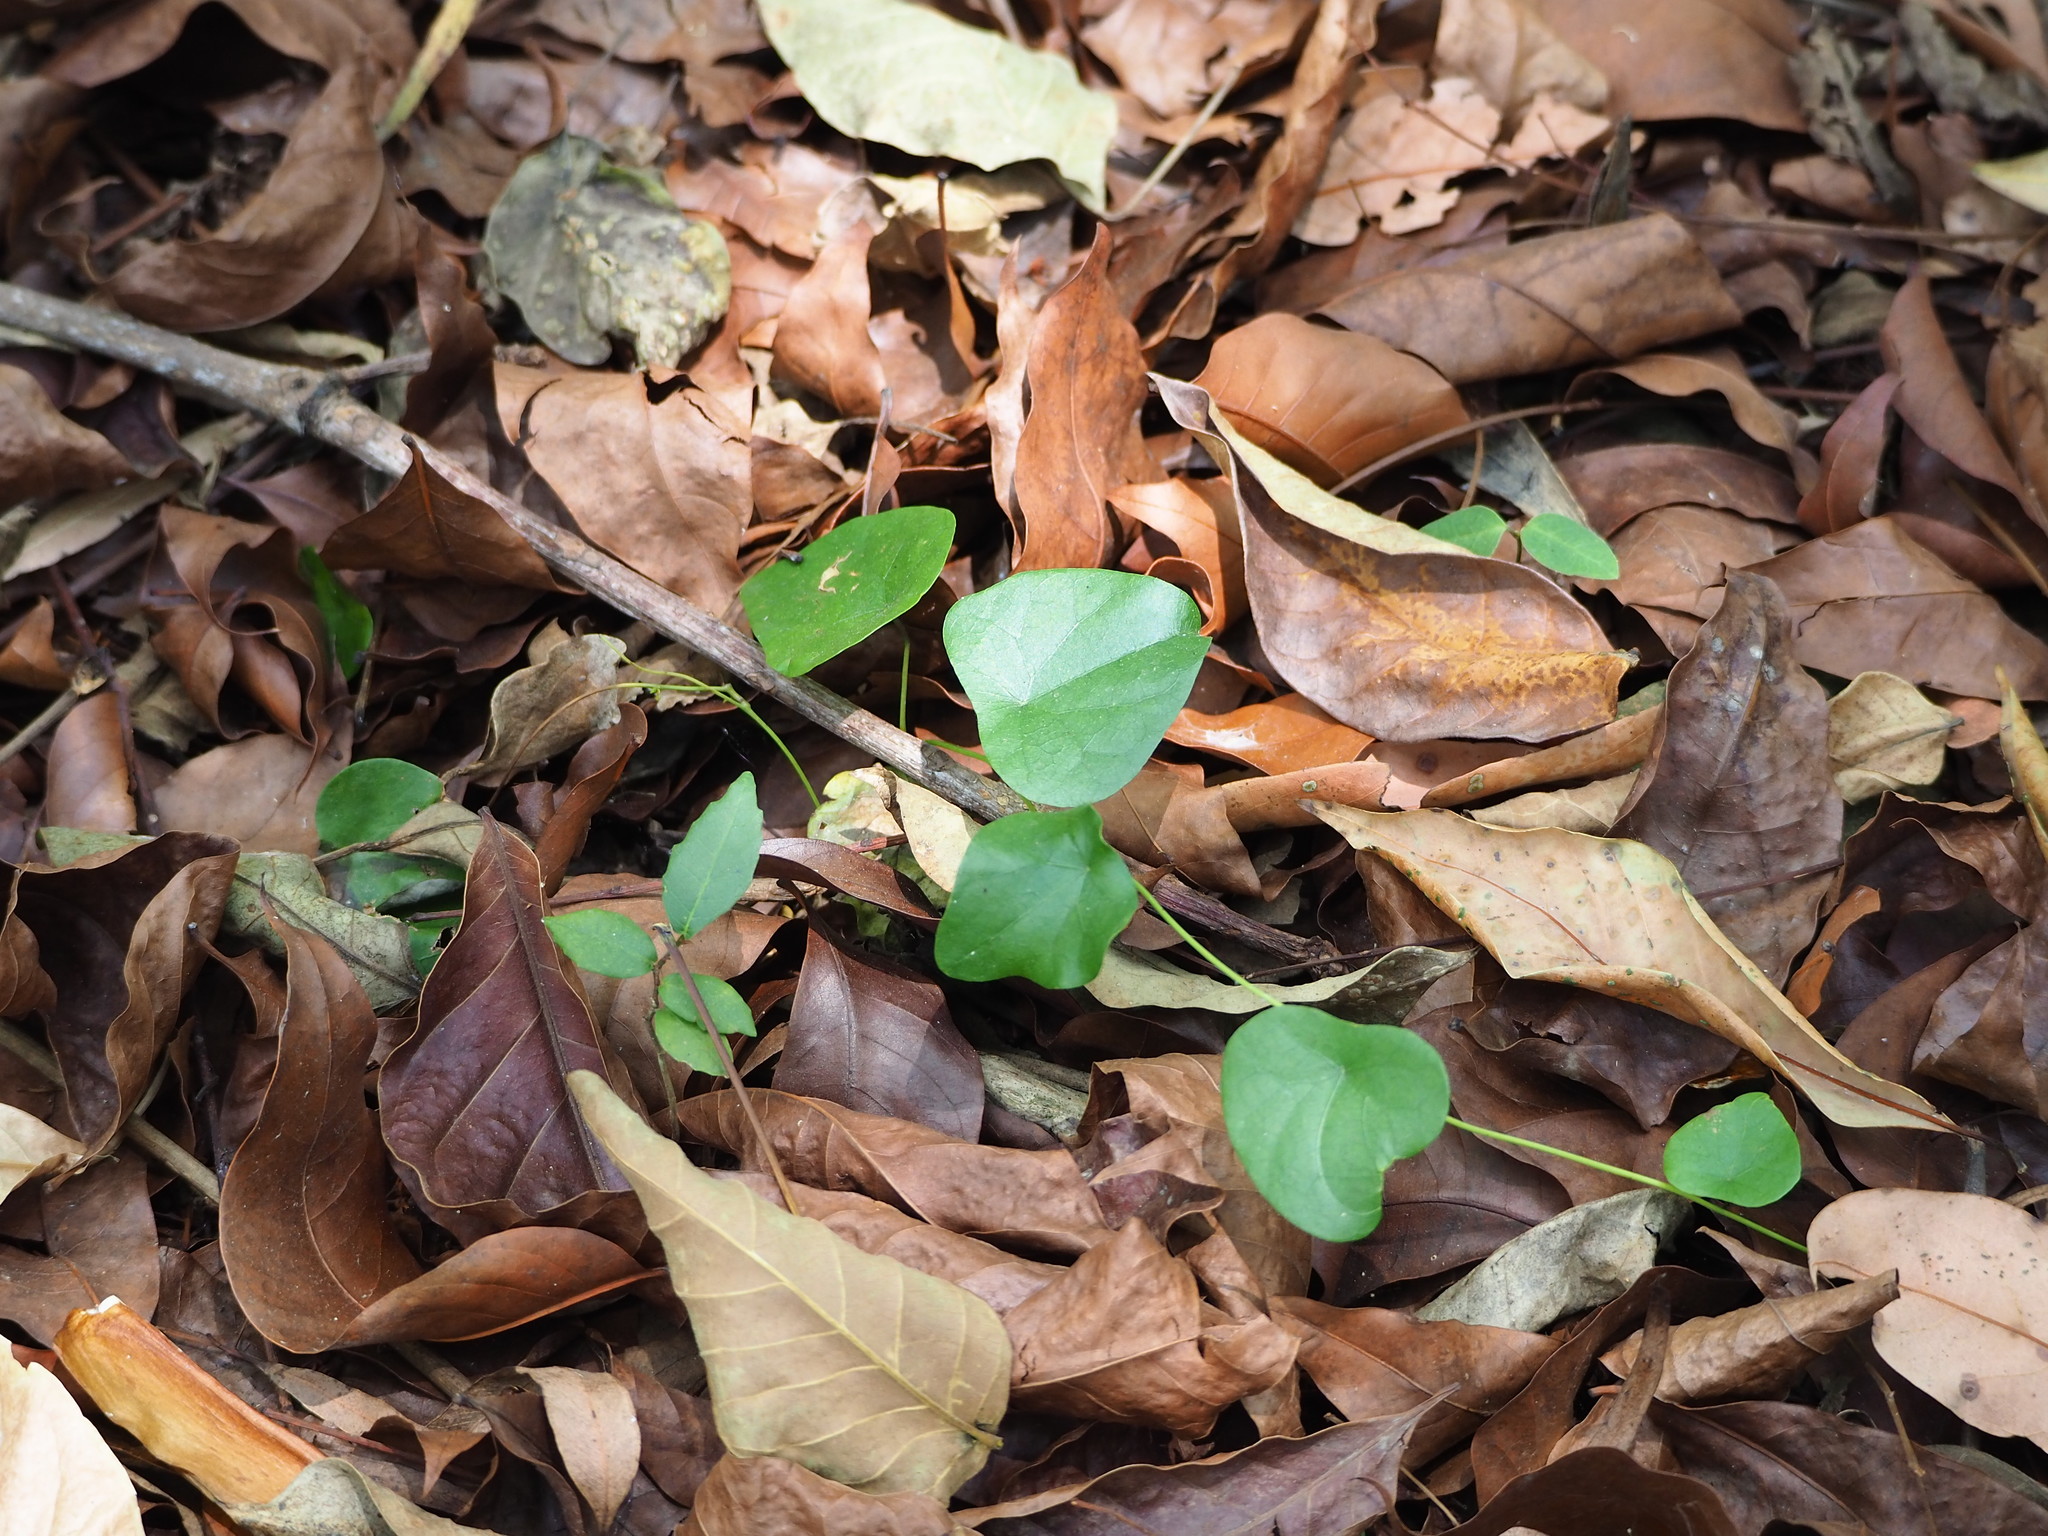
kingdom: Plantae
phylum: Tracheophyta
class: Magnoliopsida
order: Ranunculales
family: Menispermaceae
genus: Stephania
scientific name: Stephania japonica
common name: Snake vine
